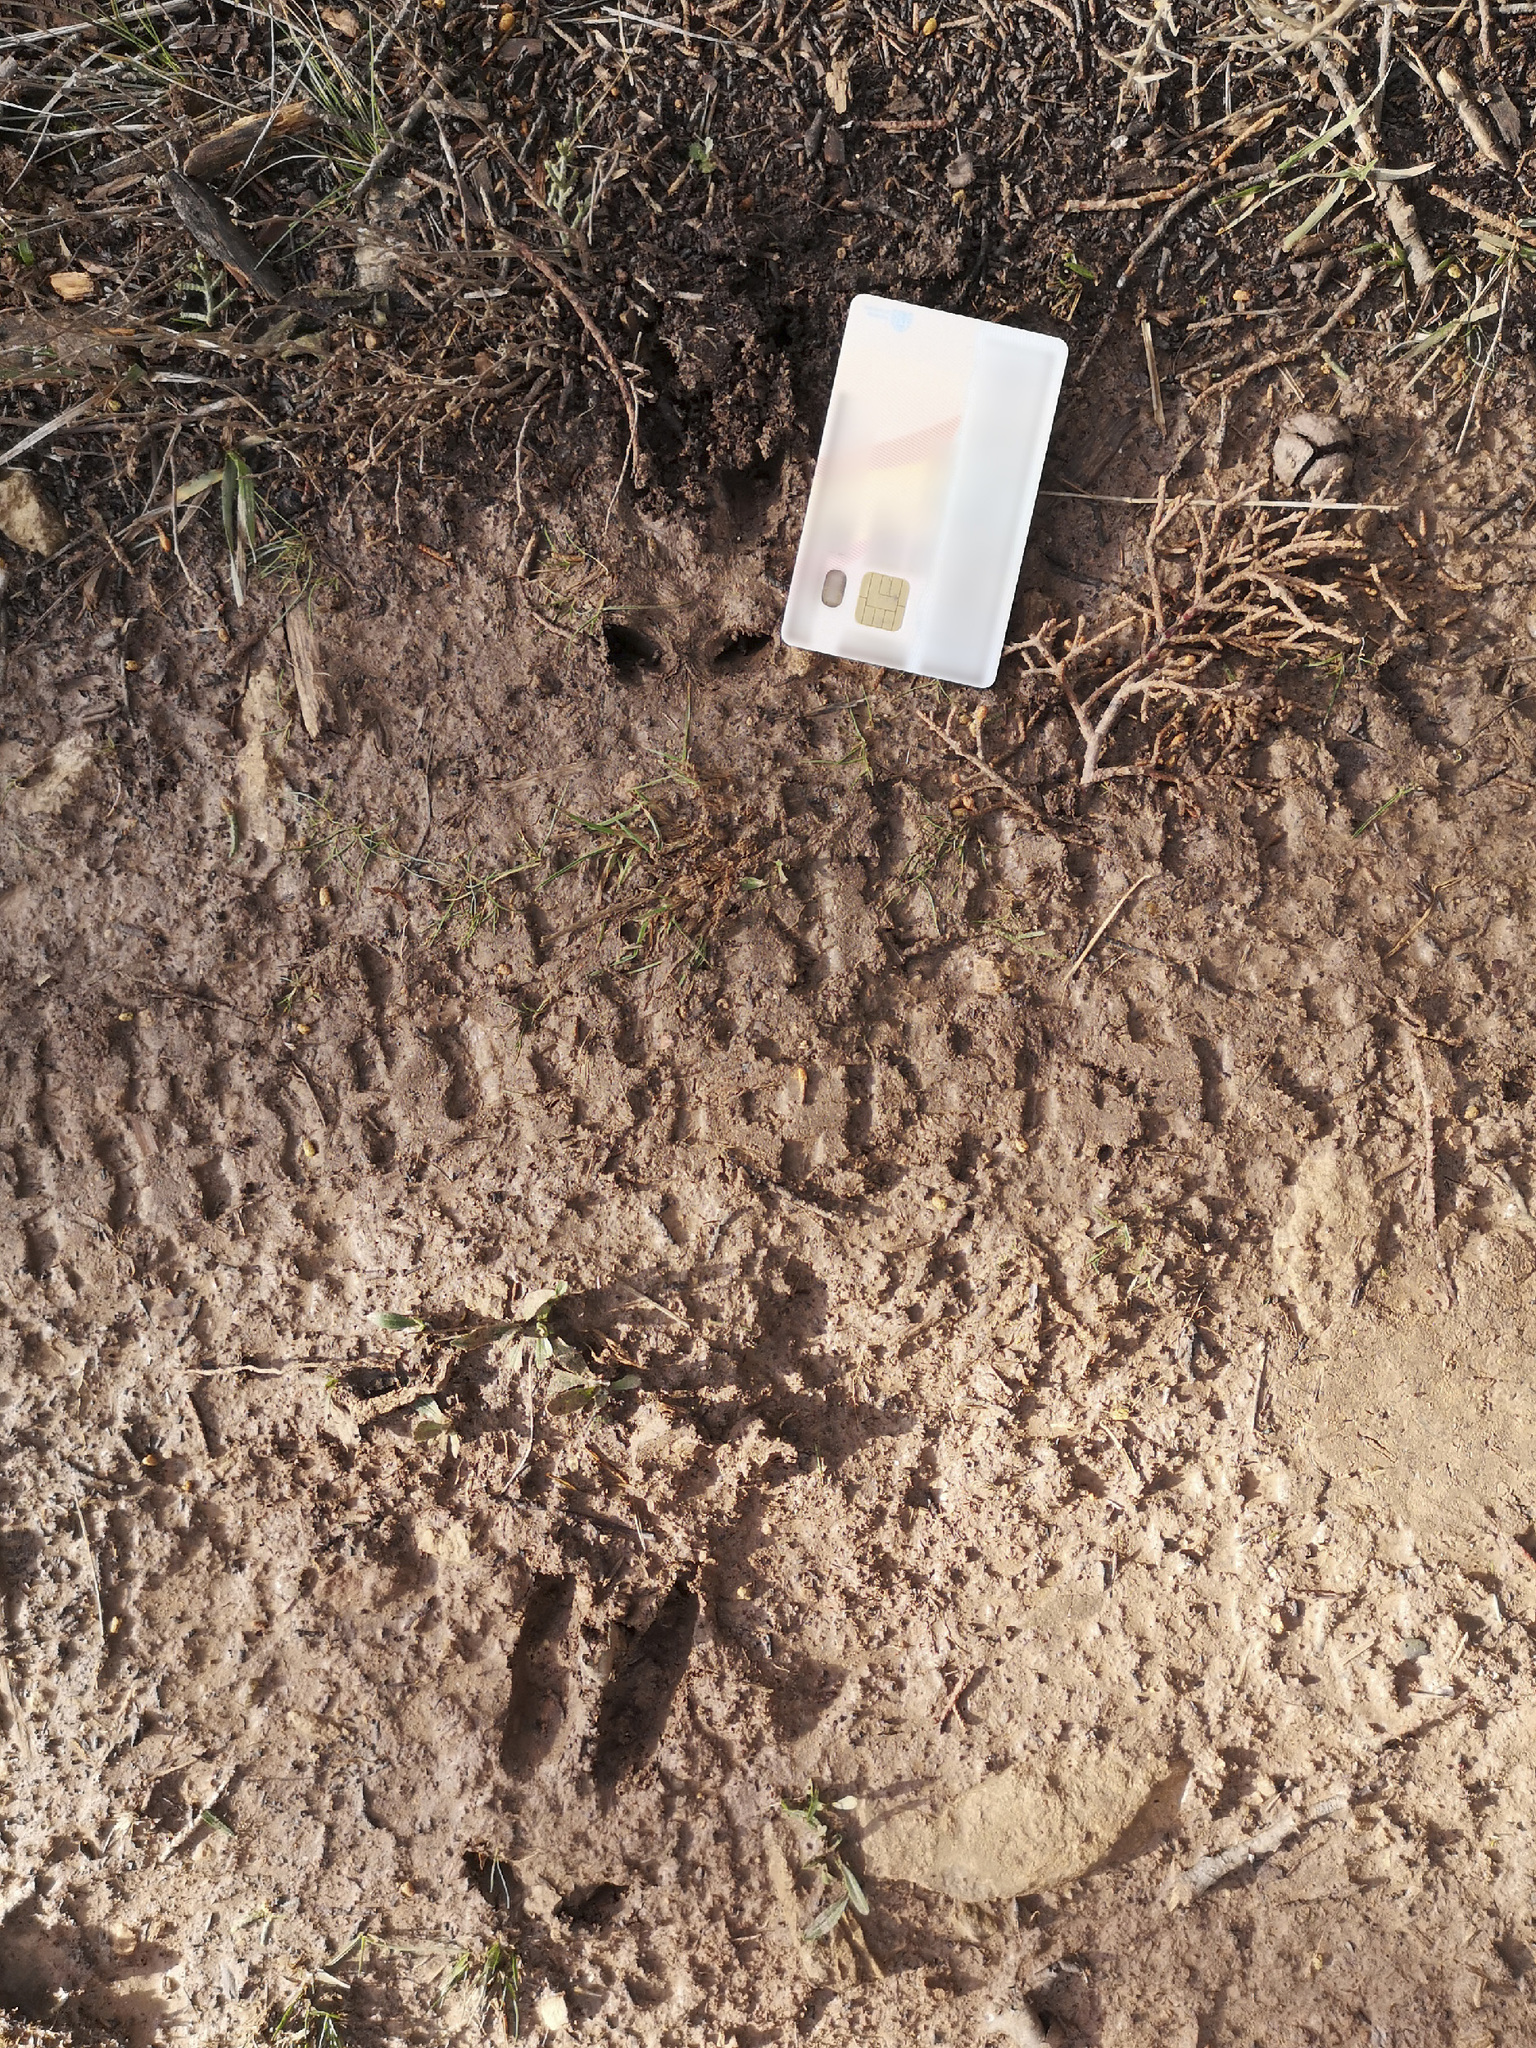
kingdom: Animalia
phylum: Chordata
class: Mammalia
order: Artiodactyla
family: Cervidae
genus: Capreolus
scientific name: Capreolus capreolus
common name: Western roe deer
